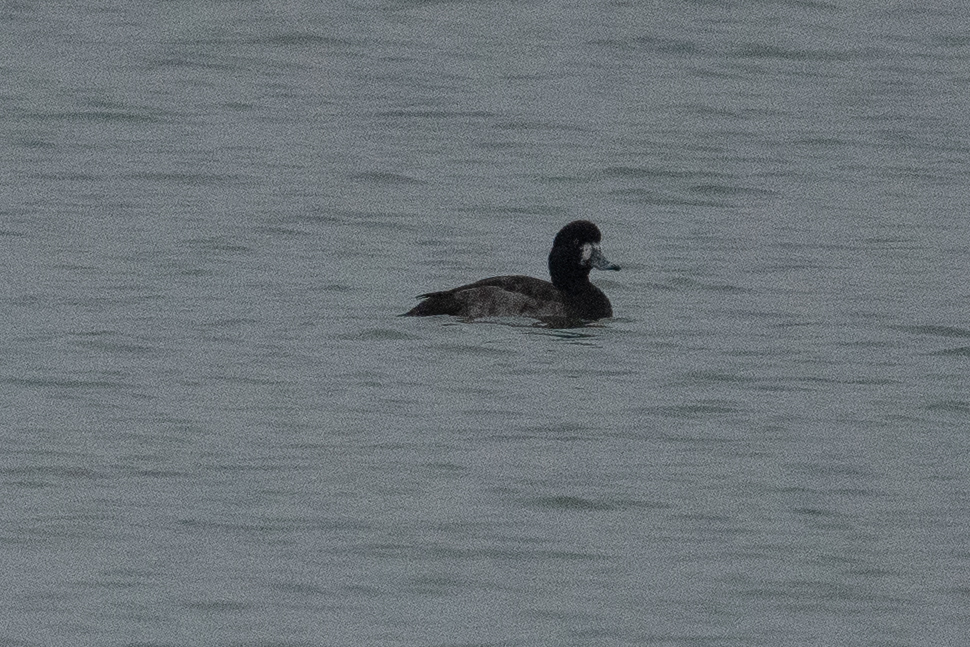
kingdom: Animalia
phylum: Chordata
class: Aves
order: Anseriformes
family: Anatidae
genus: Aythya
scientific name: Aythya marila
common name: Greater scaup
